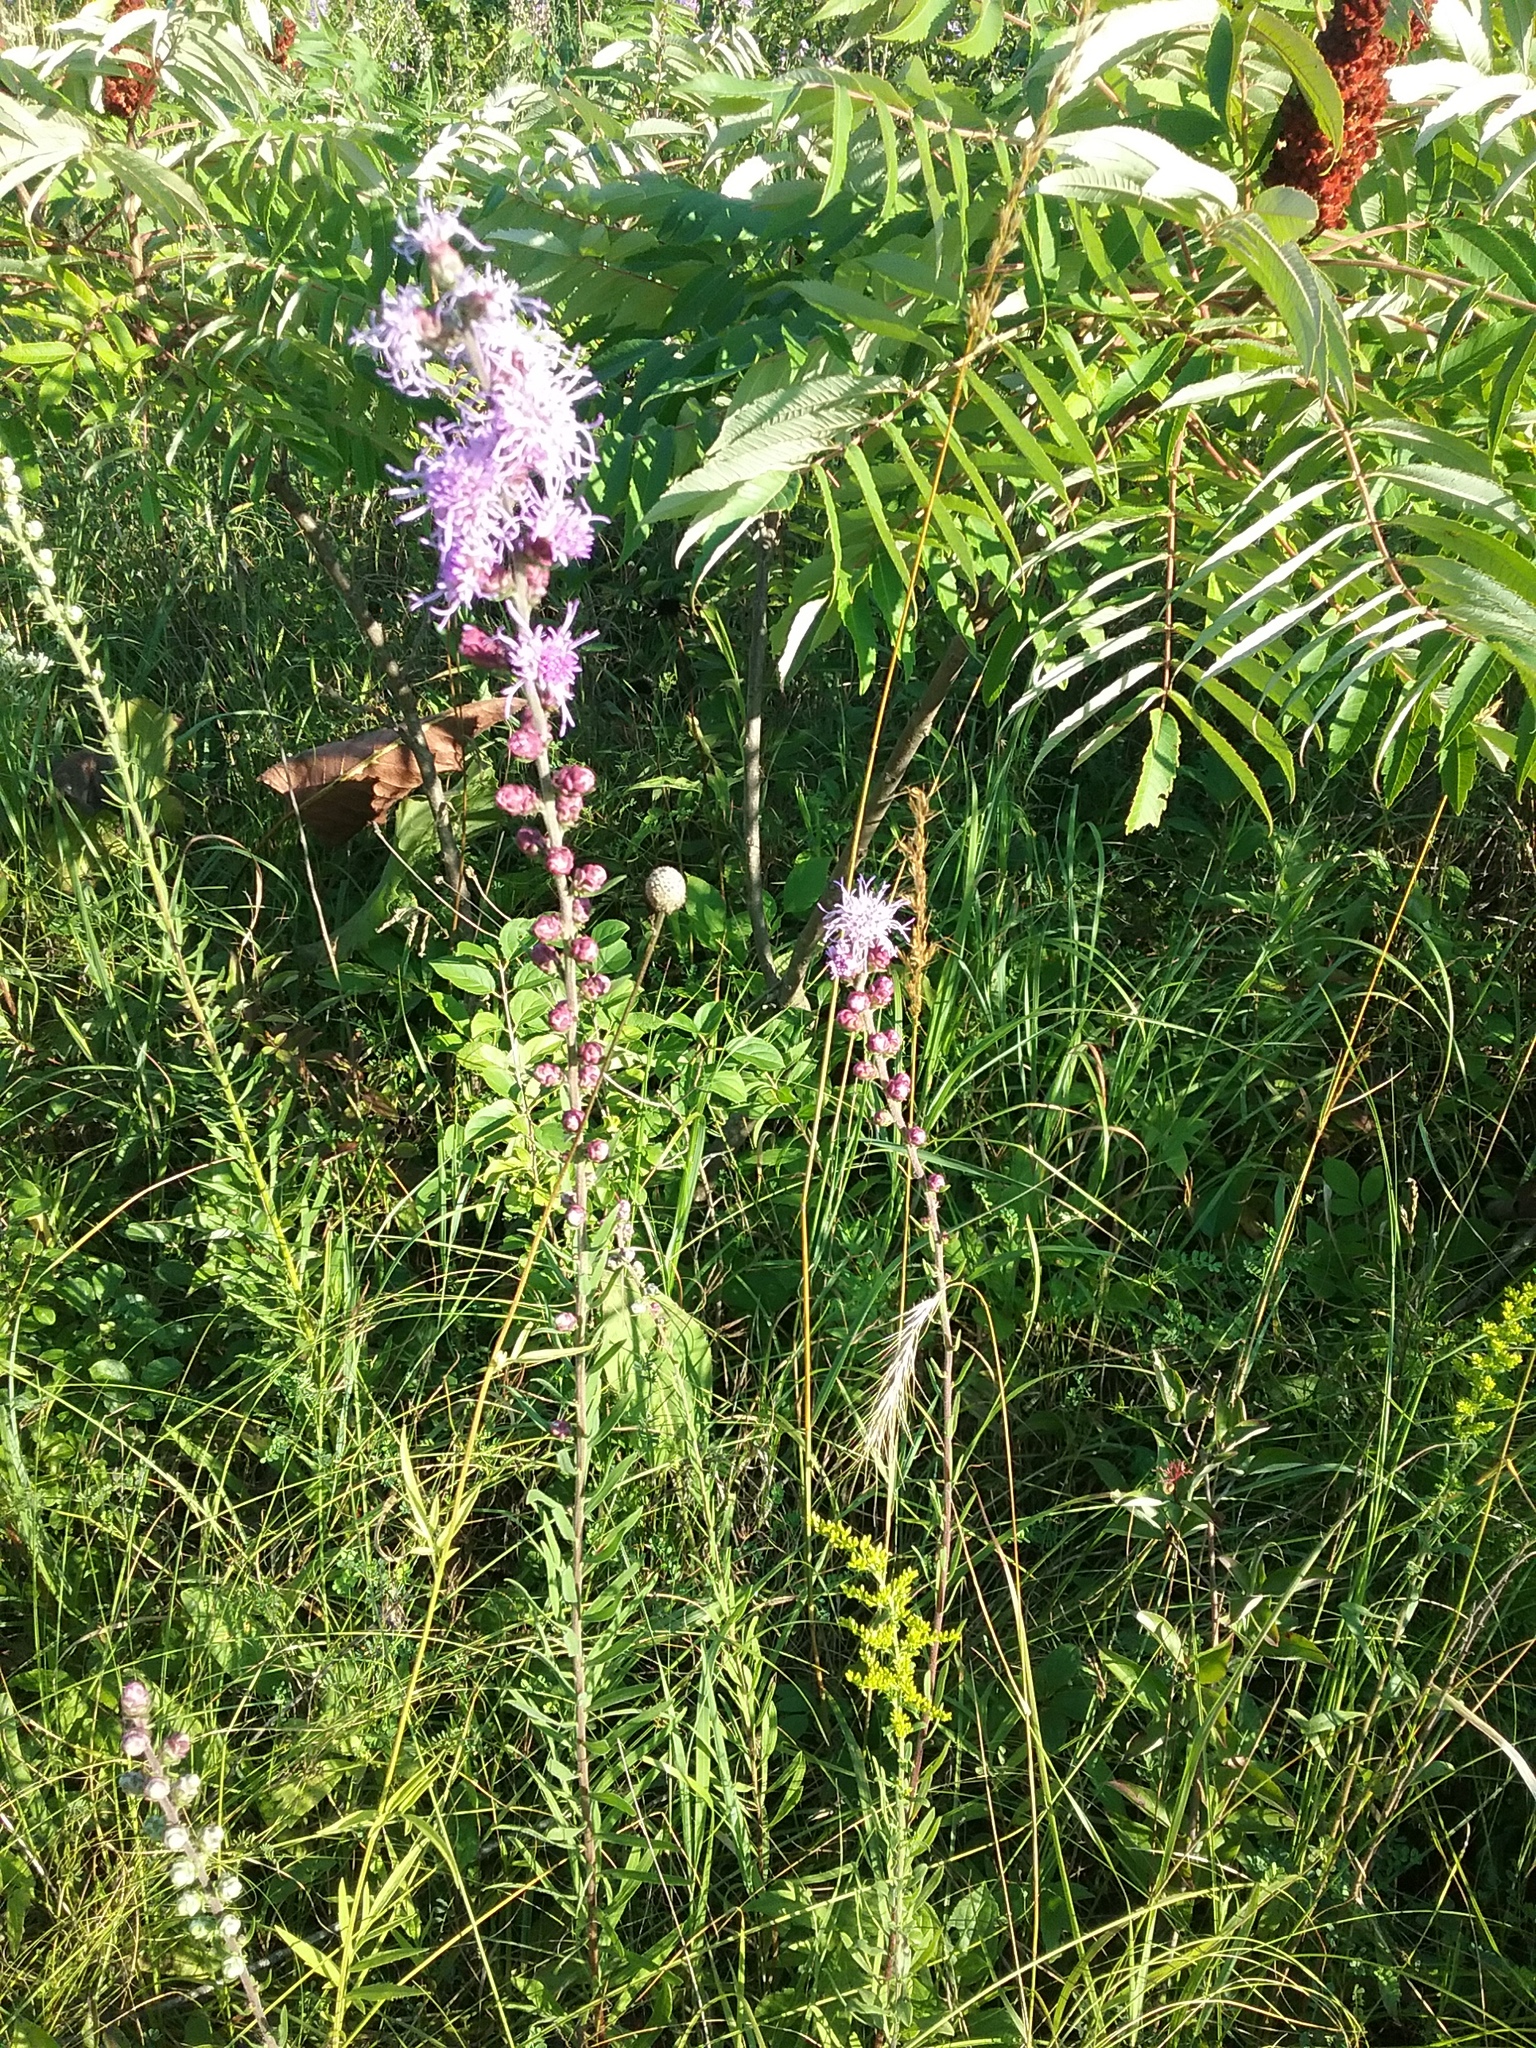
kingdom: Plantae
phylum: Tracheophyta
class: Magnoliopsida
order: Asterales
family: Asteraceae
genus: Liatris
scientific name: Liatris aspera
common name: Lacerate blazing-star
